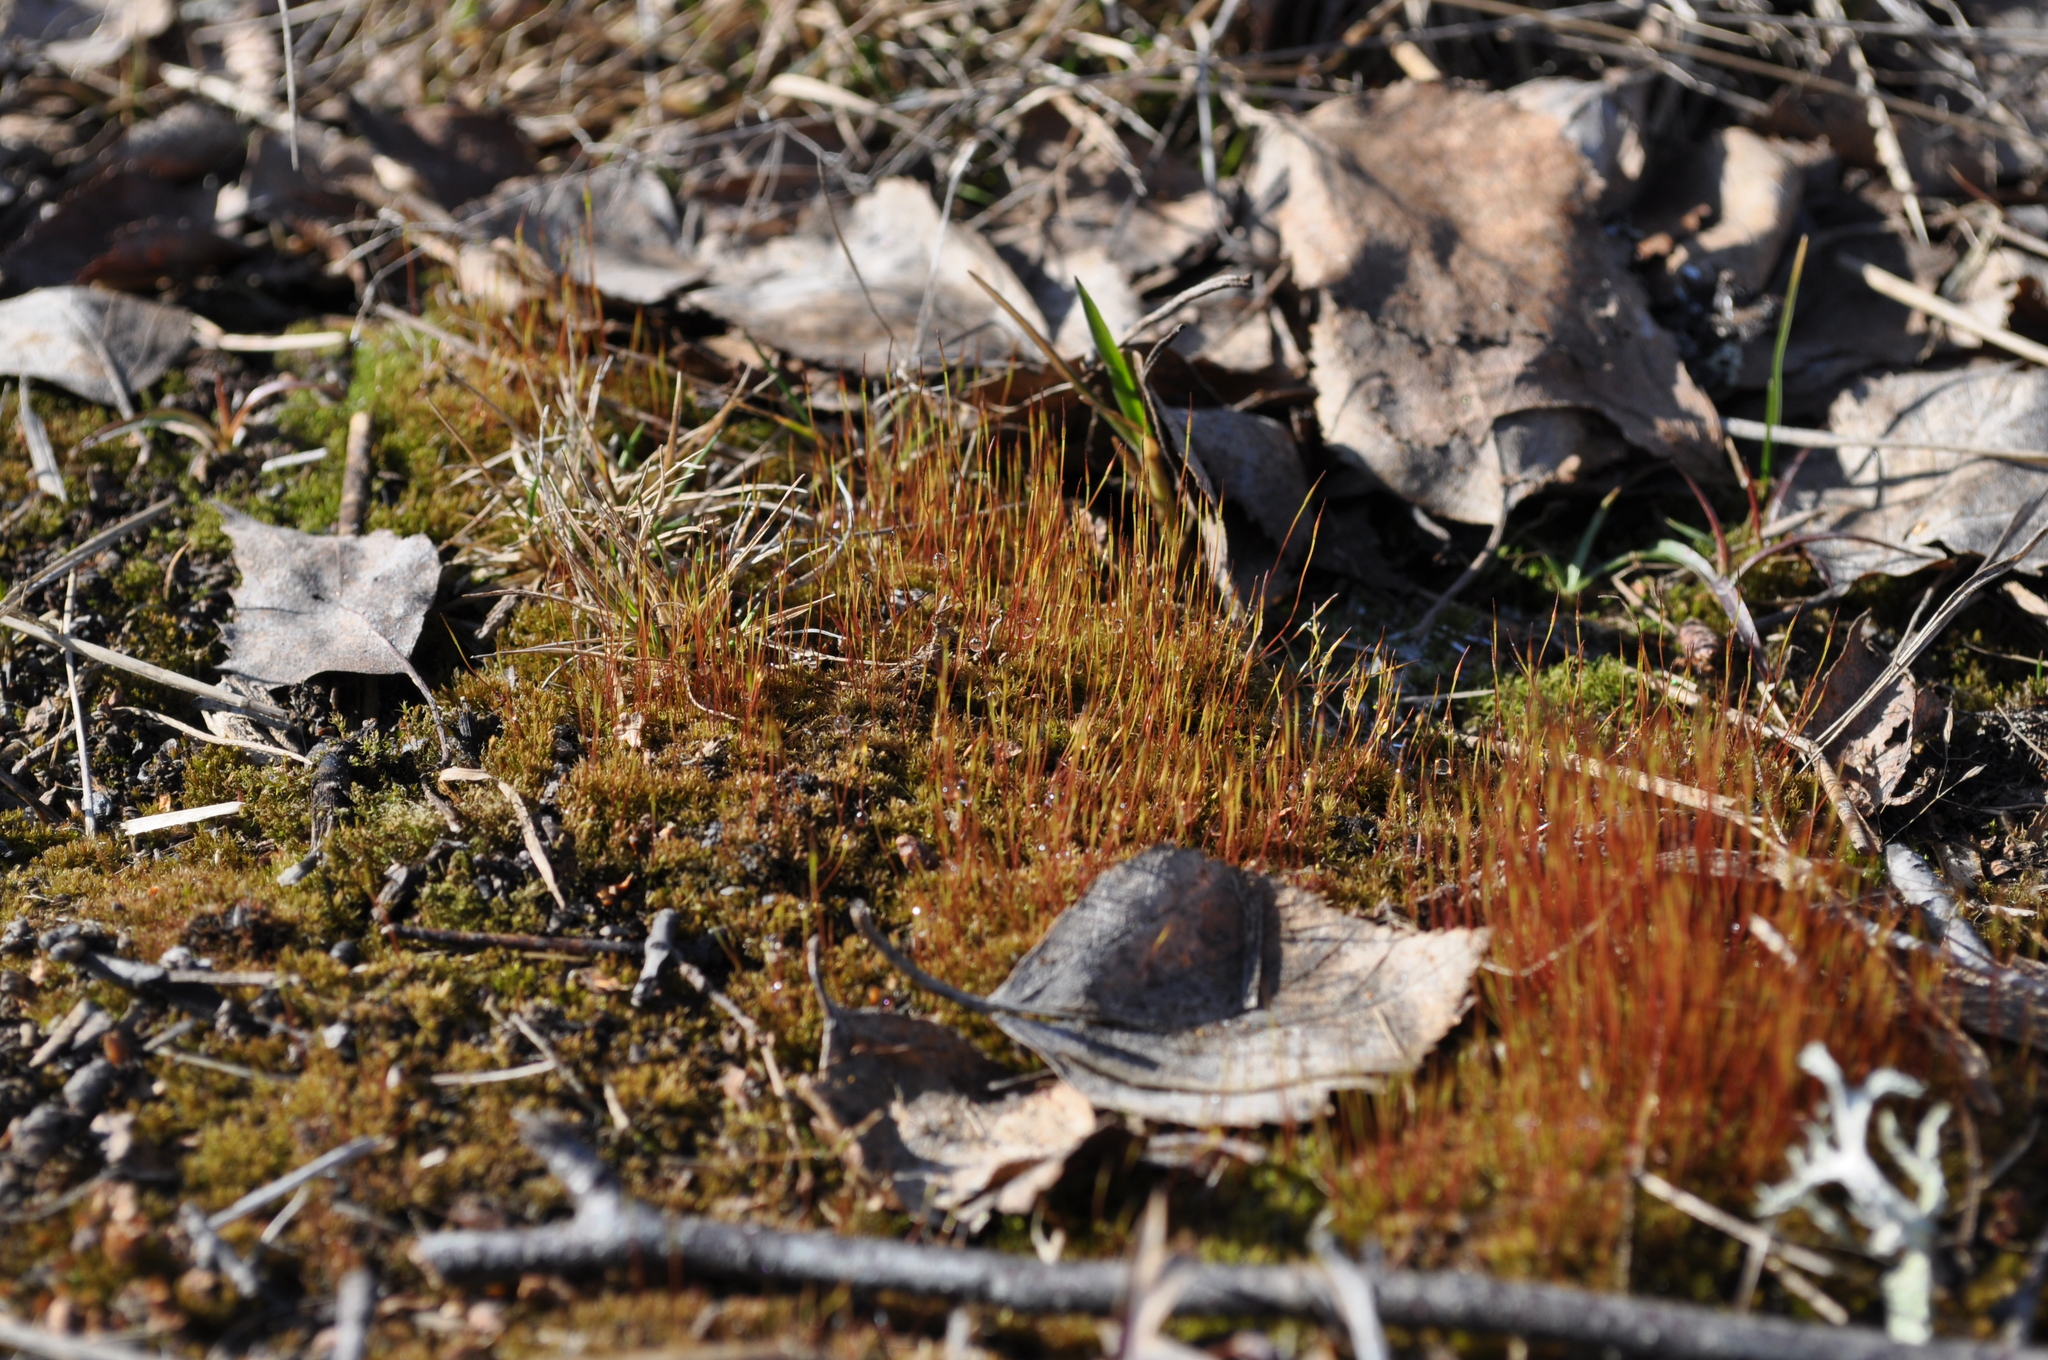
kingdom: Plantae
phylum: Bryophyta
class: Bryopsida
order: Dicranales
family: Ditrichaceae
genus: Ceratodon
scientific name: Ceratodon purpureus
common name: Redshank
